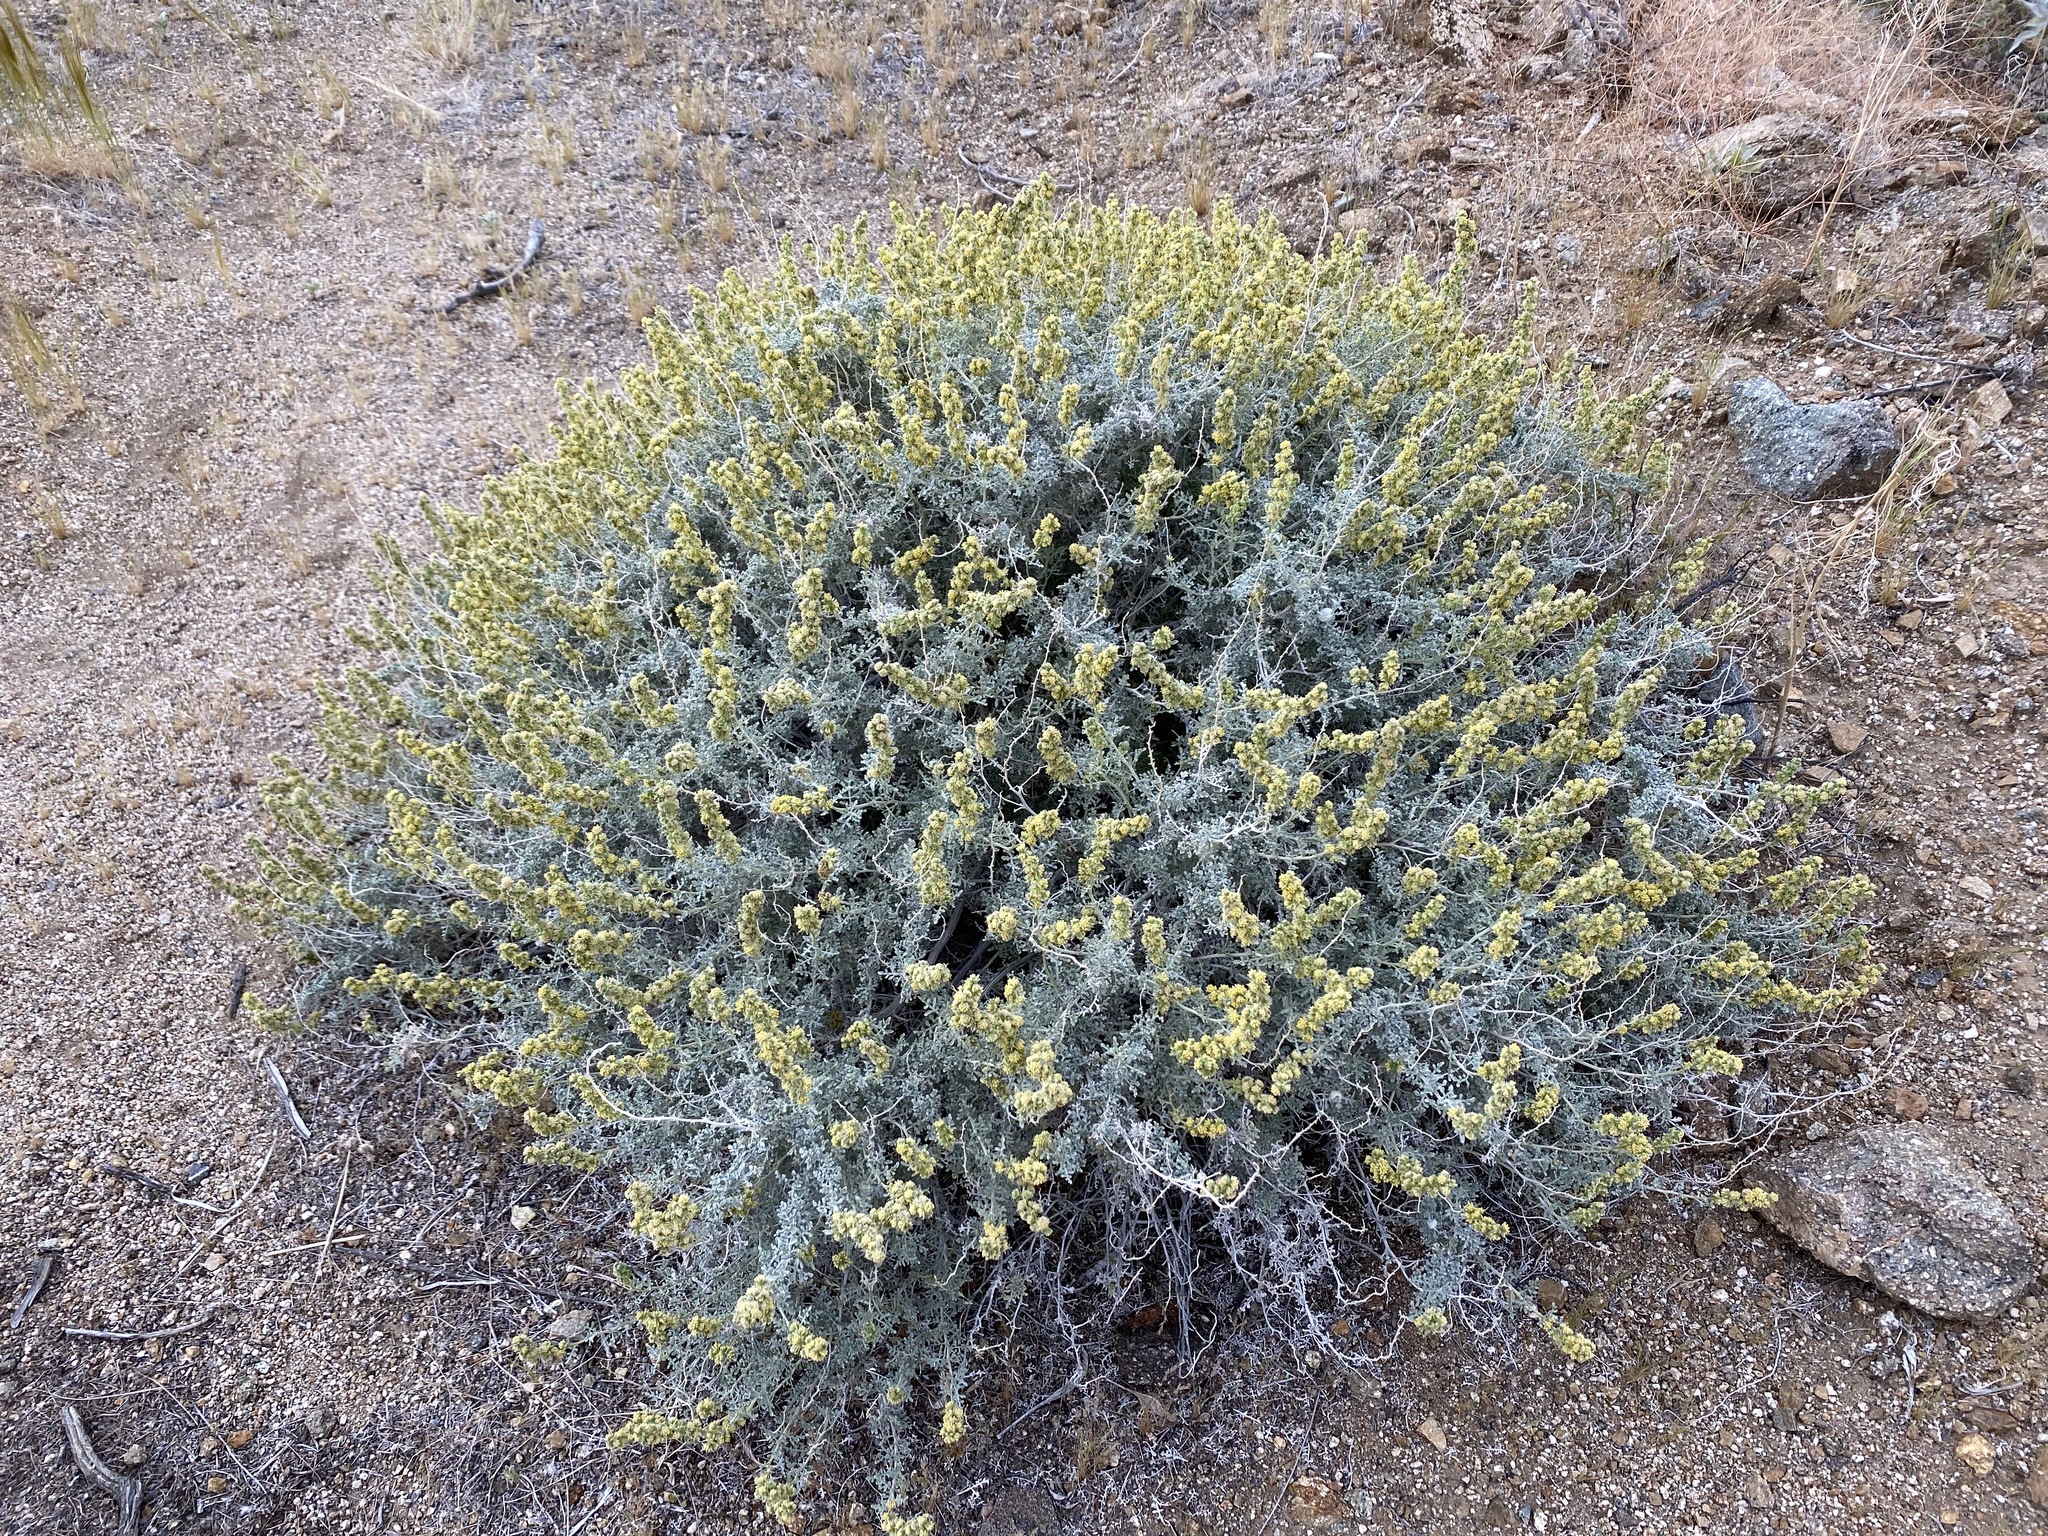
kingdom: Plantae
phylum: Tracheophyta
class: Magnoliopsida
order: Asterales
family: Asteraceae
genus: Ambrosia
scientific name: Ambrosia dumosa
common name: Bur-sage
